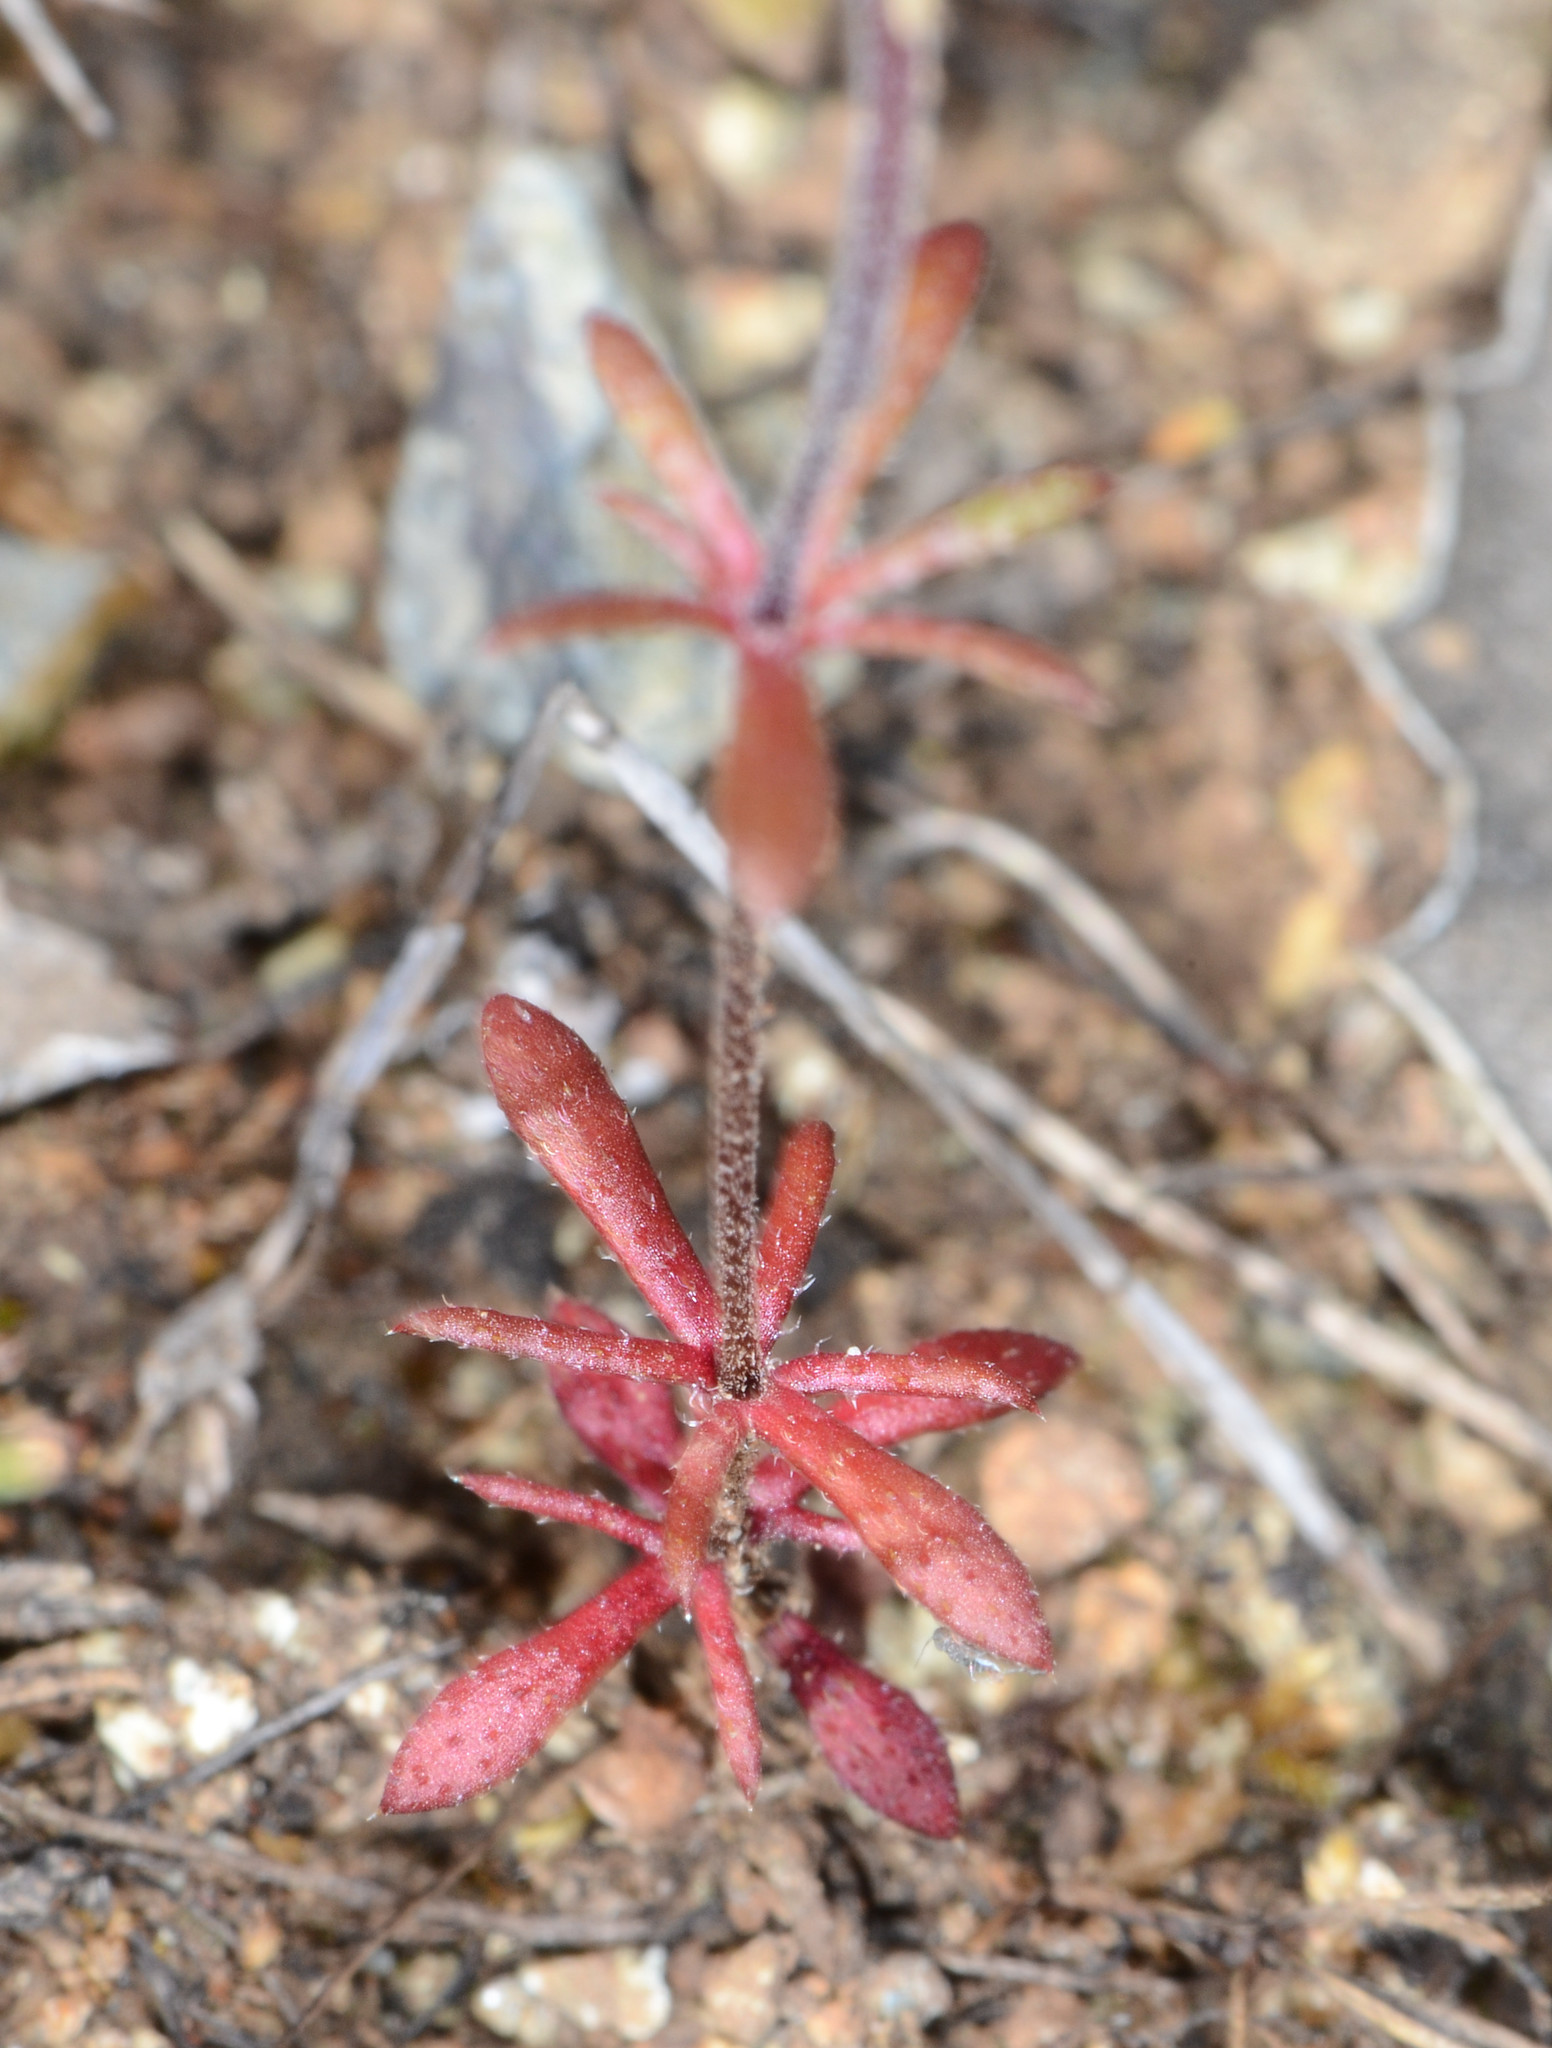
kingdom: Plantae
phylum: Tracheophyta
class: Magnoliopsida
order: Ericales
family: Polemoniaceae
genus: Leptosiphon
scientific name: Leptosiphon androsaceus
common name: False babystars
